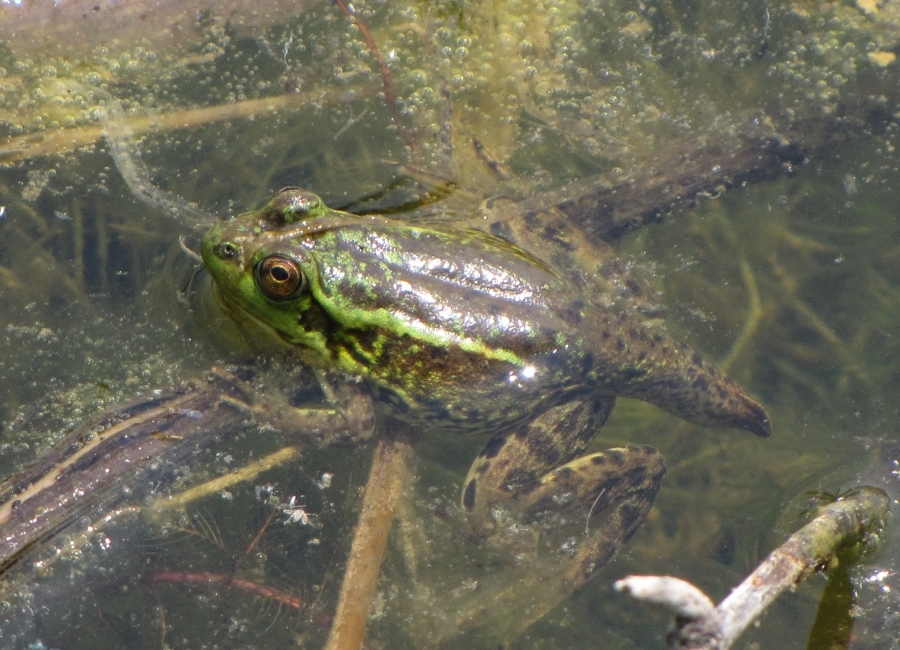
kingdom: Animalia
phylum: Chordata
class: Amphibia
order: Anura
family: Ranidae
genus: Lithobates
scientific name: Lithobates septentrionalis
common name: Mink frog
